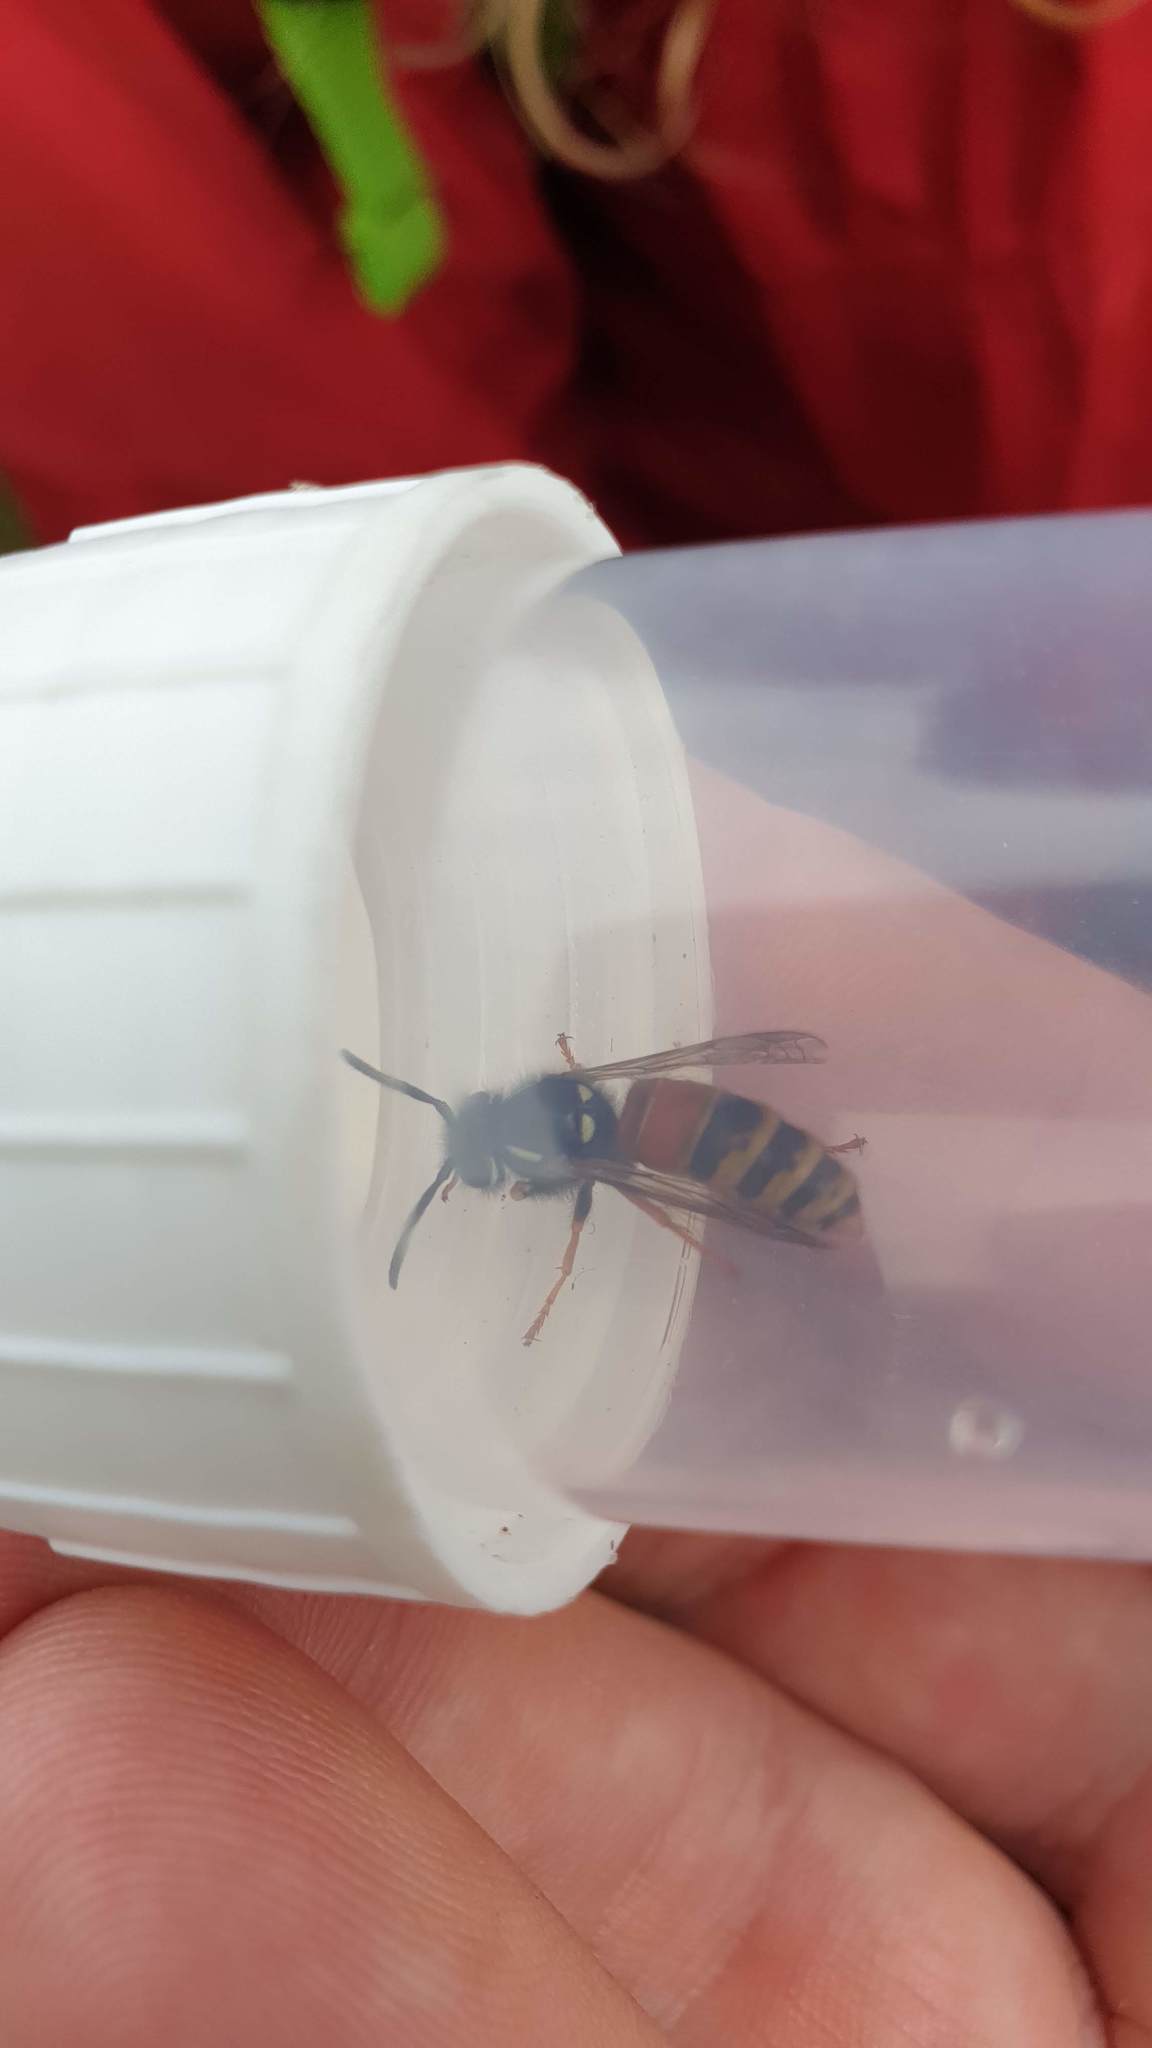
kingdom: Animalia
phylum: Arthropoda
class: Insecta
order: Hymenoptera
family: Vespidae
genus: Vespula
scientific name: Vespula rufa
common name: Red wasp
